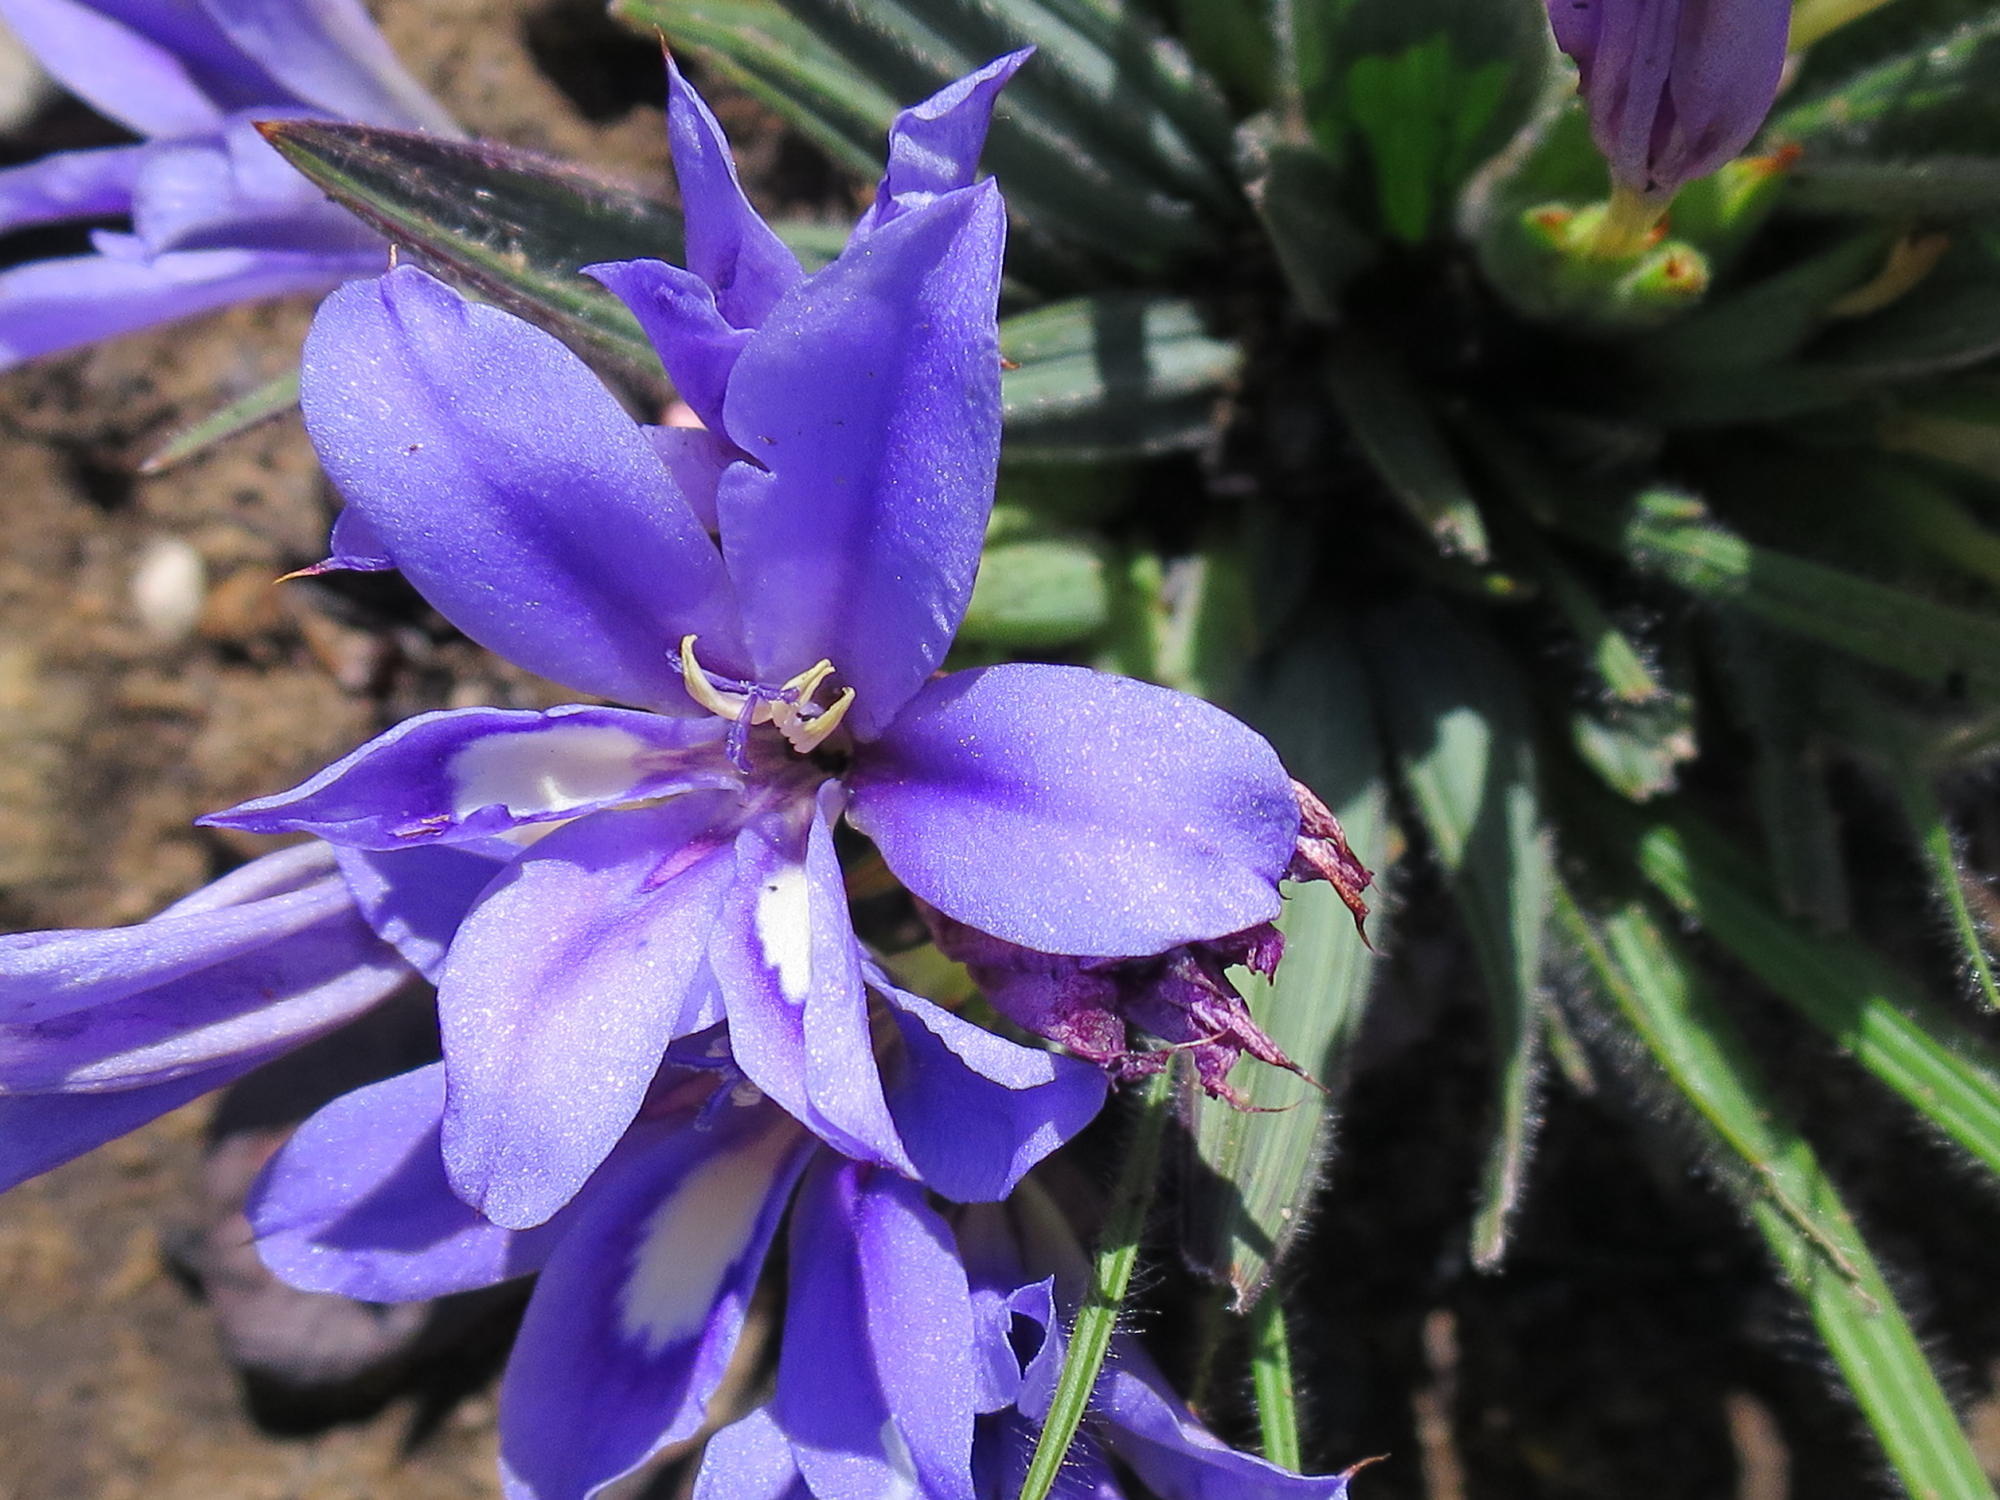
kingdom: Plantae
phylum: Tracheophyta
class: Liliopsida
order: Asparagales
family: Iridaceae
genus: Babiana
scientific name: Babiana sambucina
